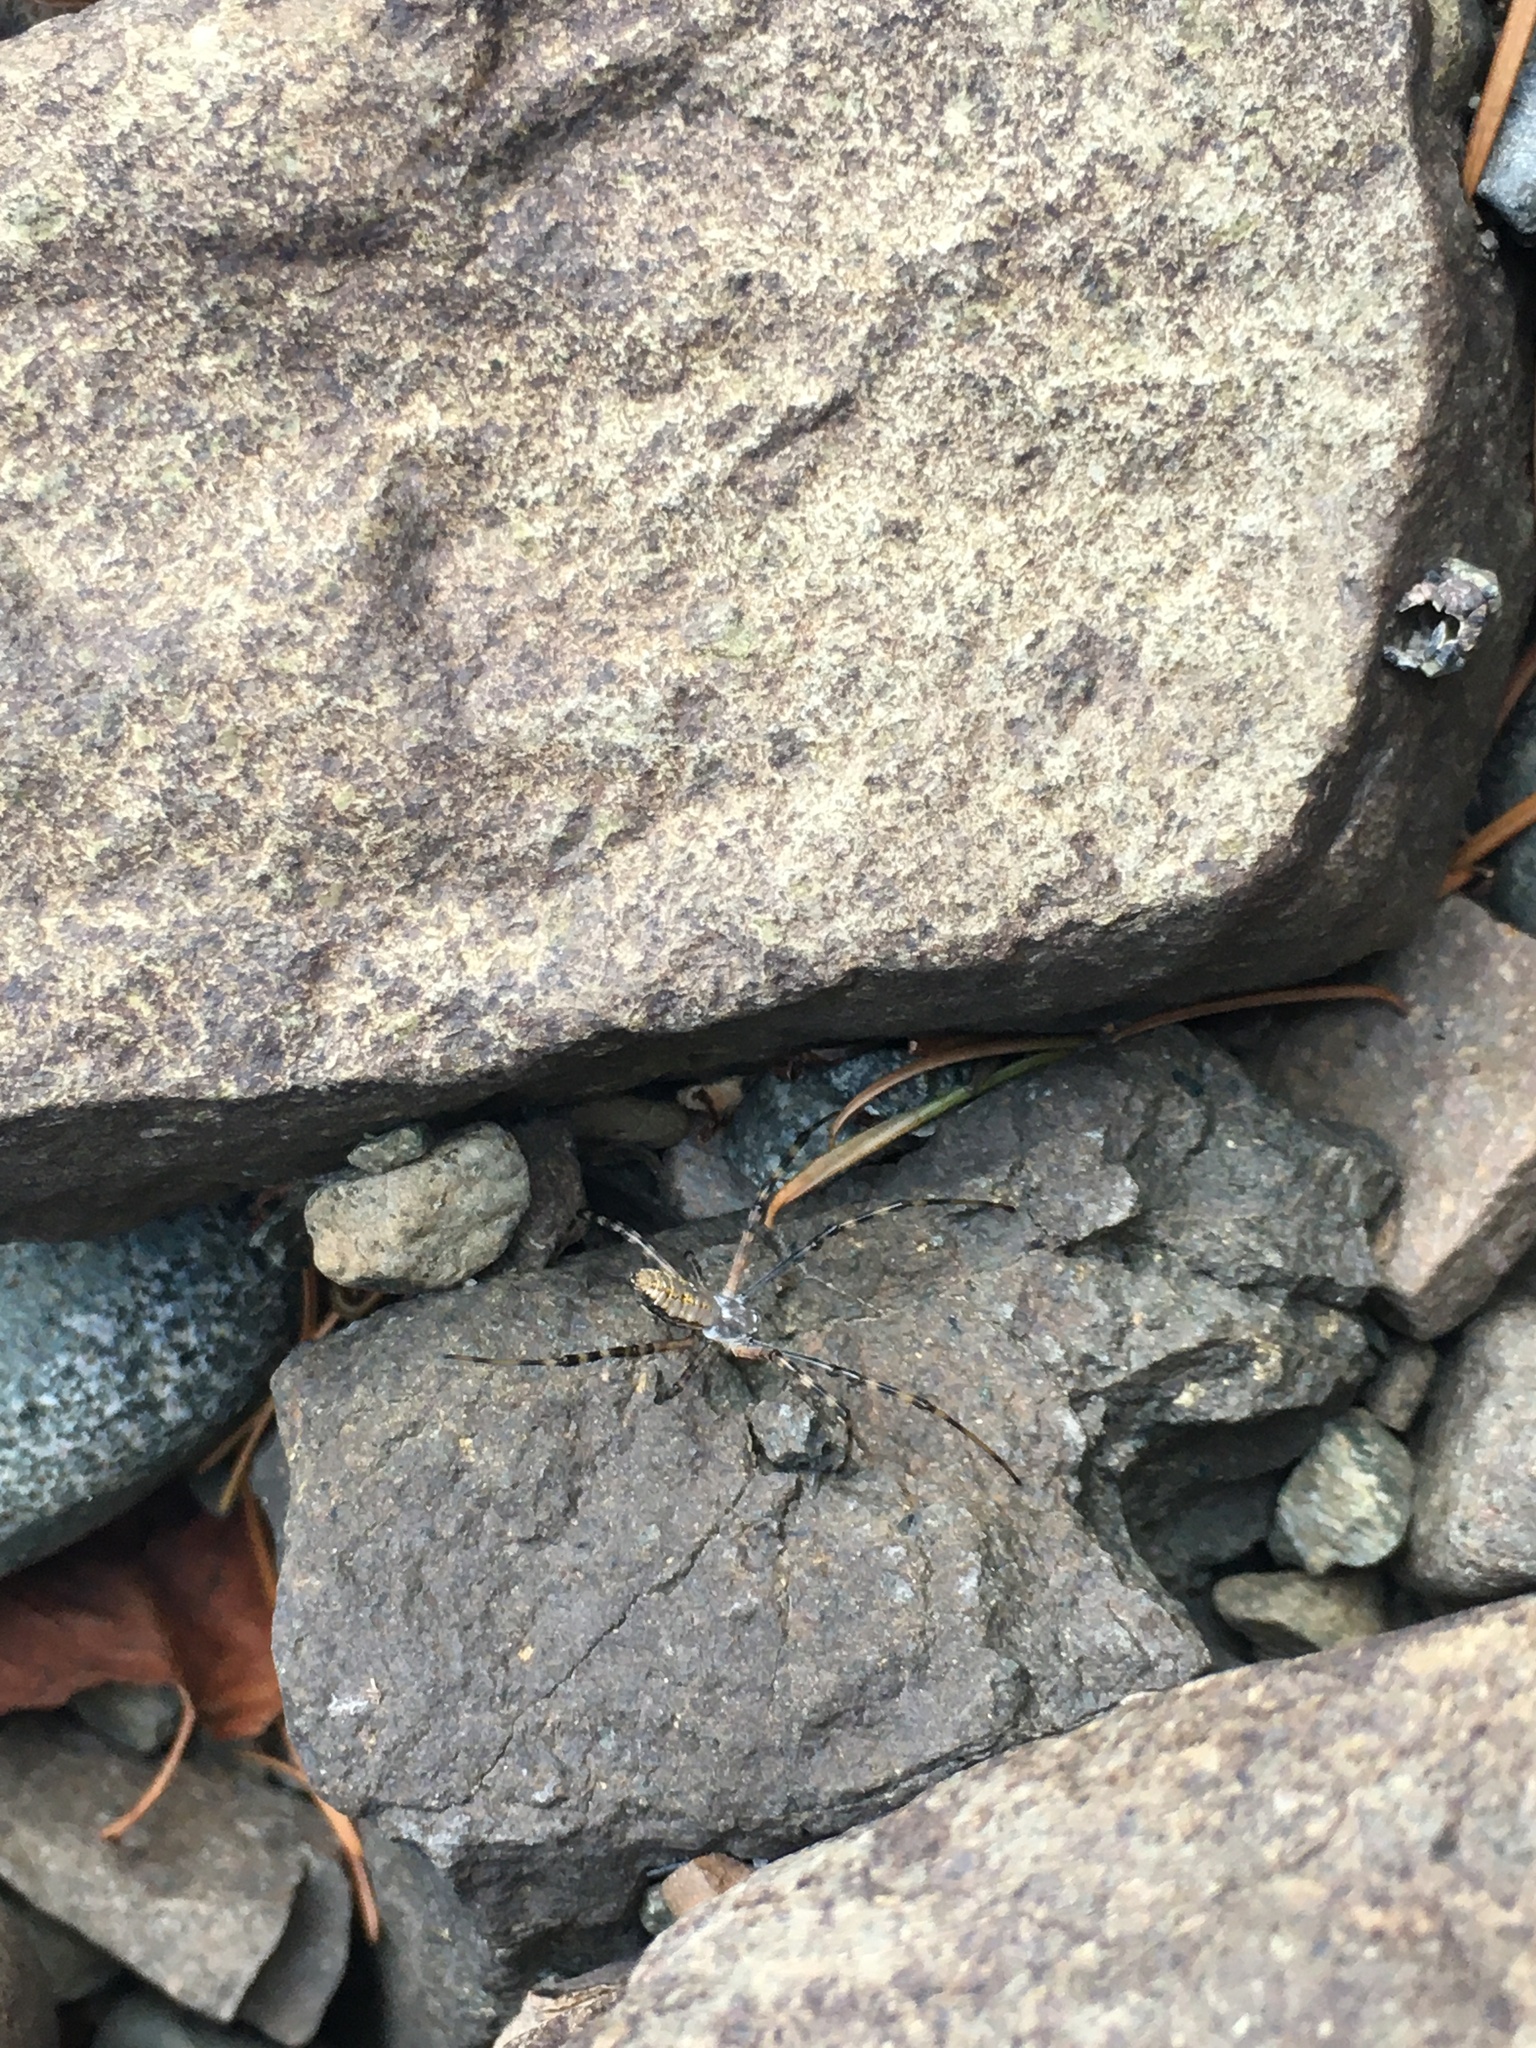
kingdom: Animalia
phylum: Arthropoda
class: Arachnida
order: Araneae
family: Araneidae
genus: Argiope
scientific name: Argiope trifasciata
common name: Banded garden spider
